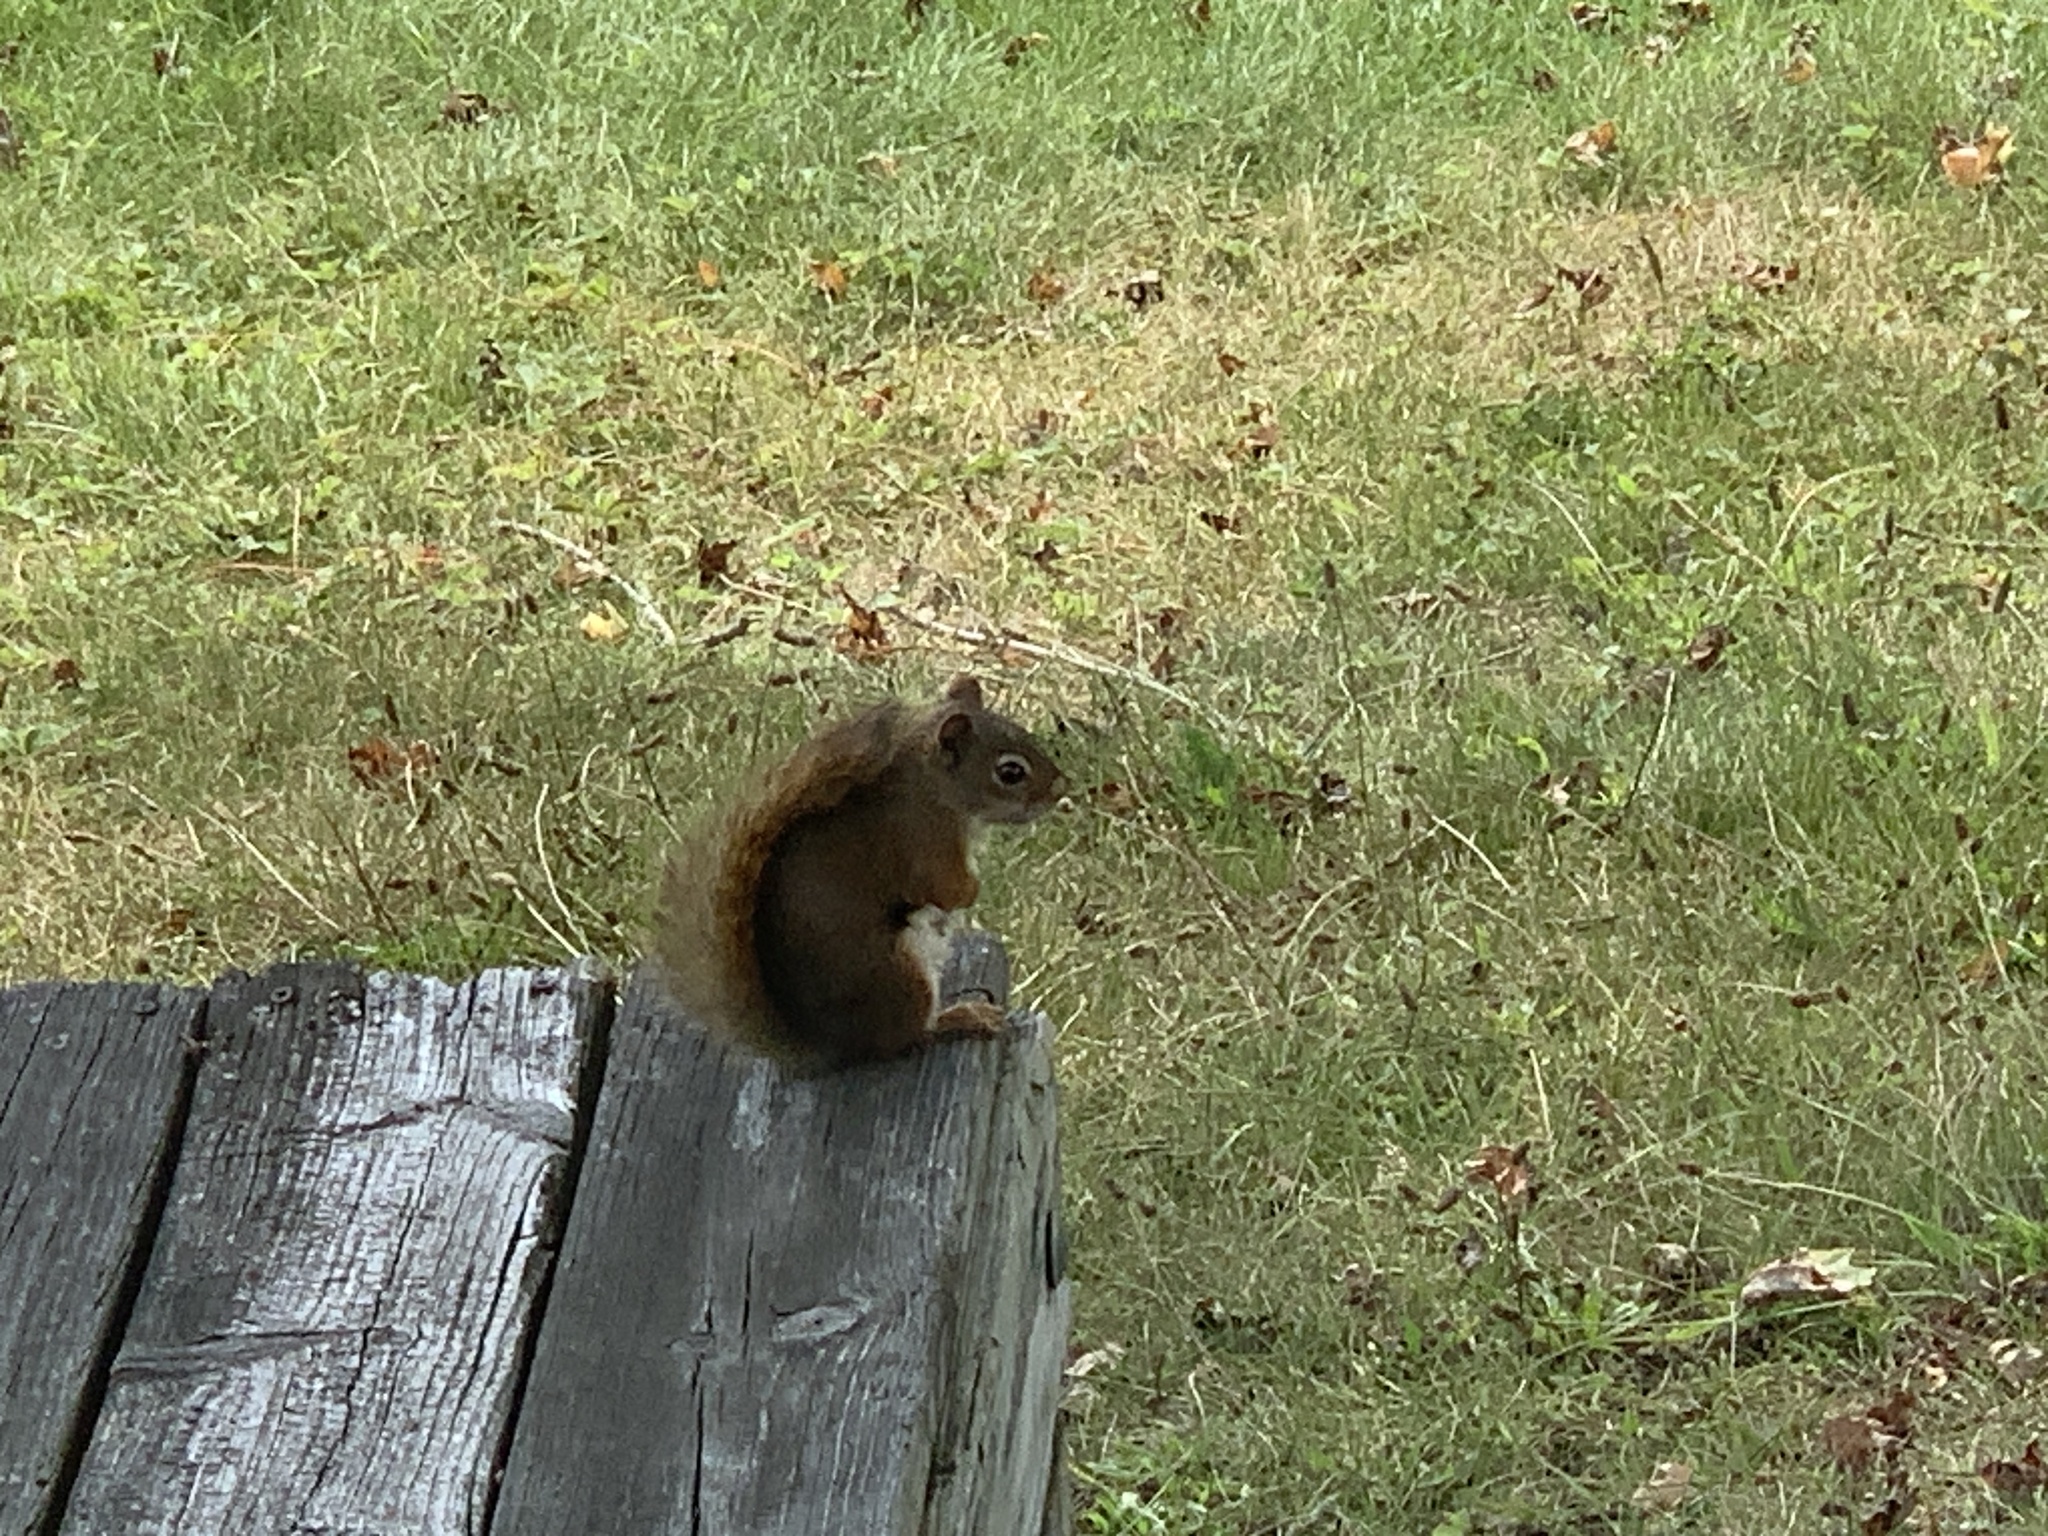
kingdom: Animalia
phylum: Chordata
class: Mammalia
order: Rodentia
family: Sciuridae
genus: Tamiasciurus
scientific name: Tamiasciurus hudsonicus
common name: Red squirrel
